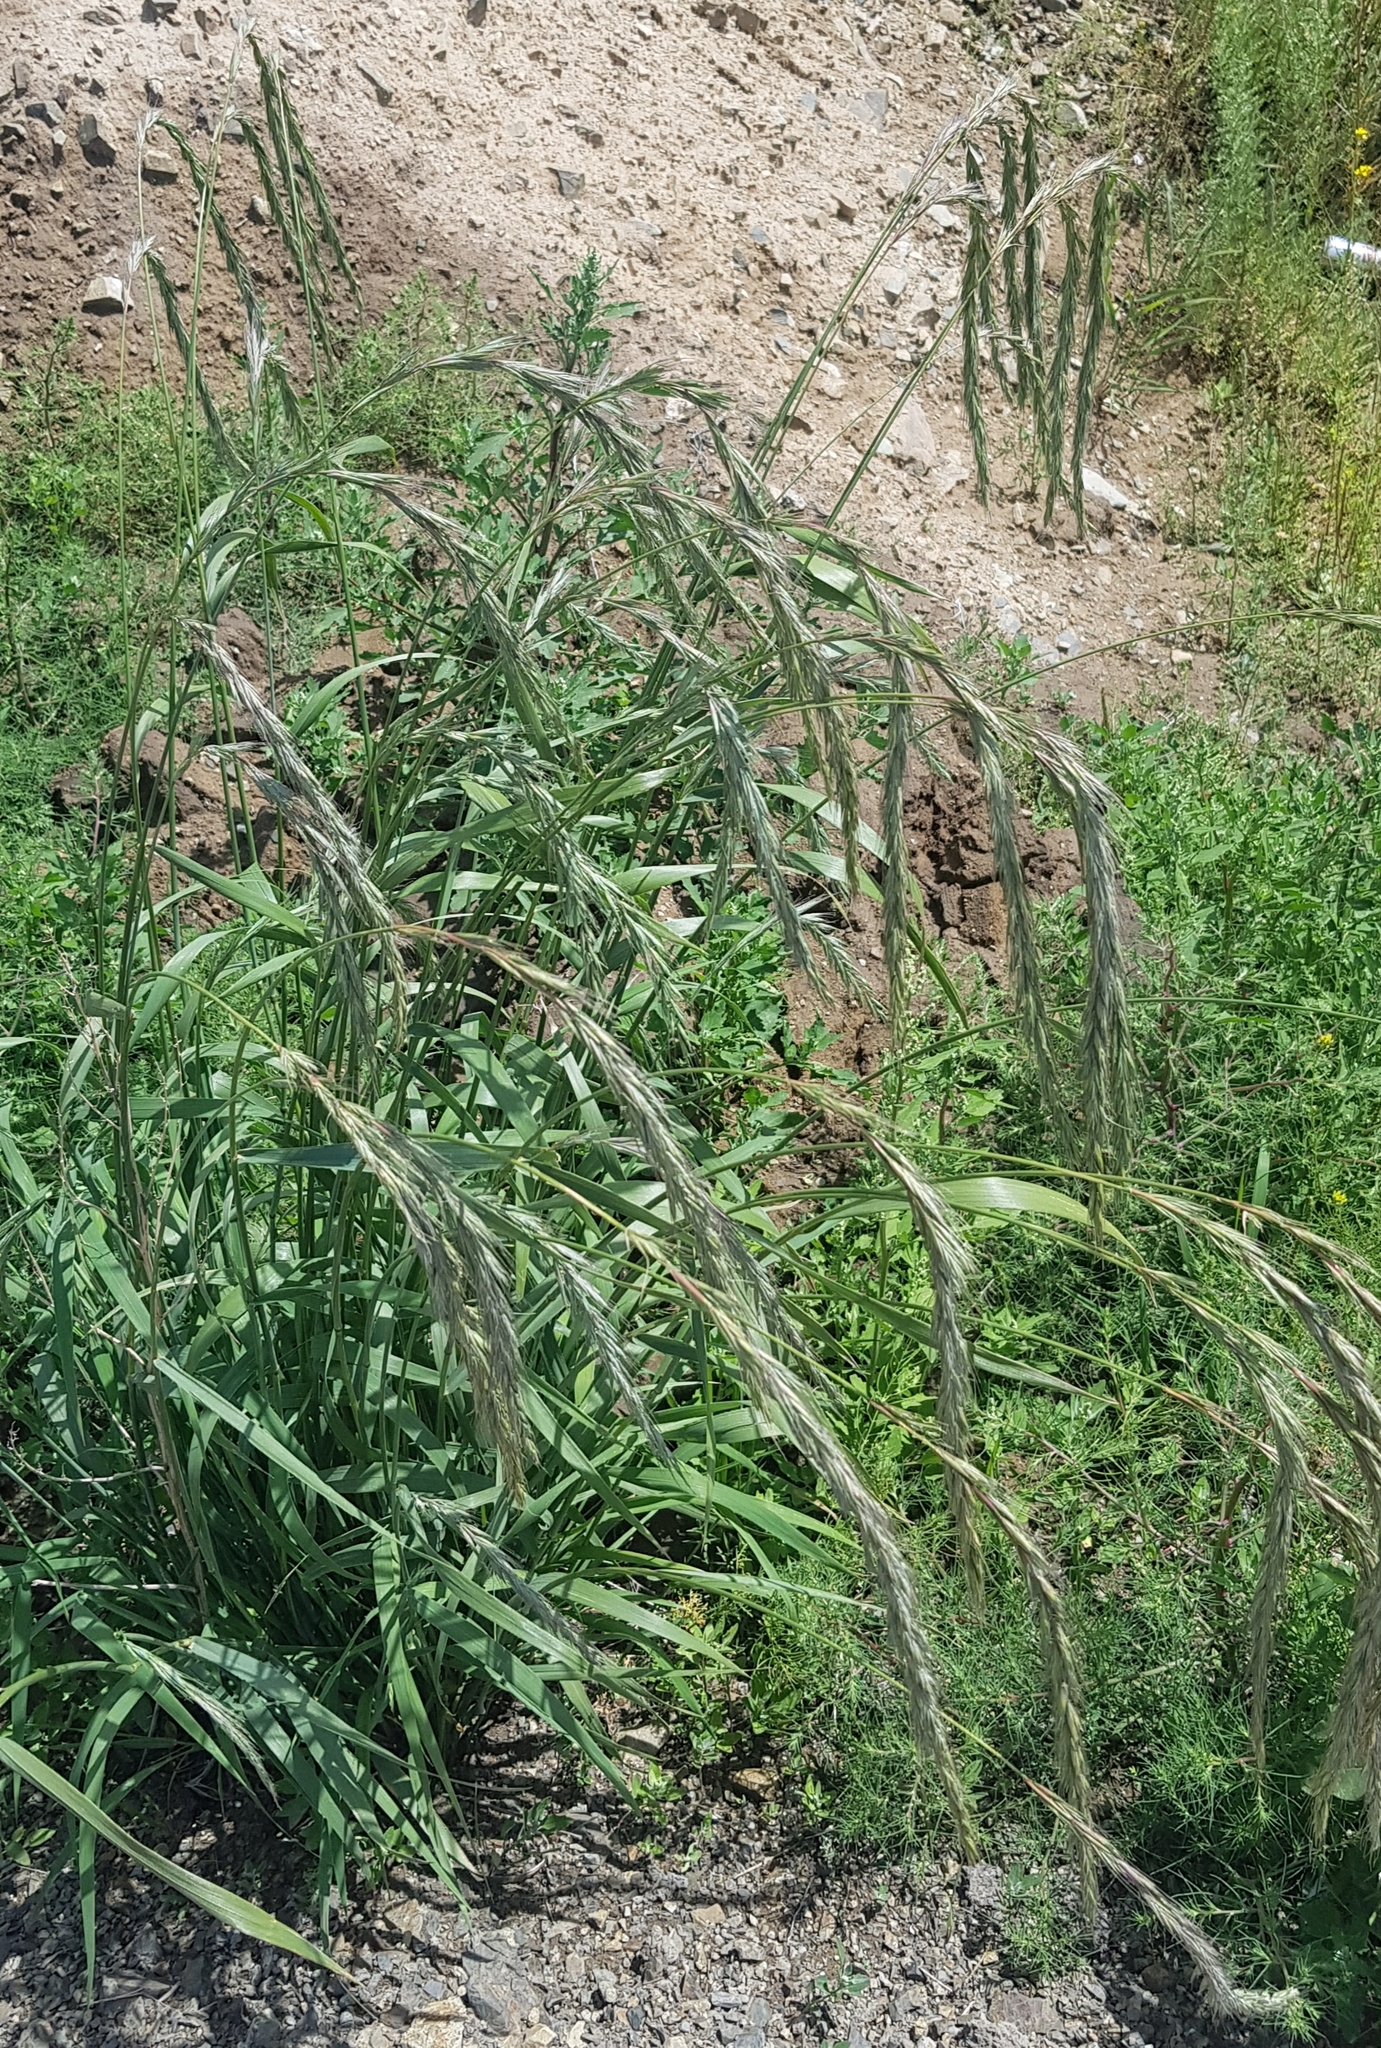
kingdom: Plantae
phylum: Tracheophyta
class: Liliopsida
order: Poales
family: Poaceae
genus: Elymus
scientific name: Elymus sibiricus
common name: Siberian wildrye
